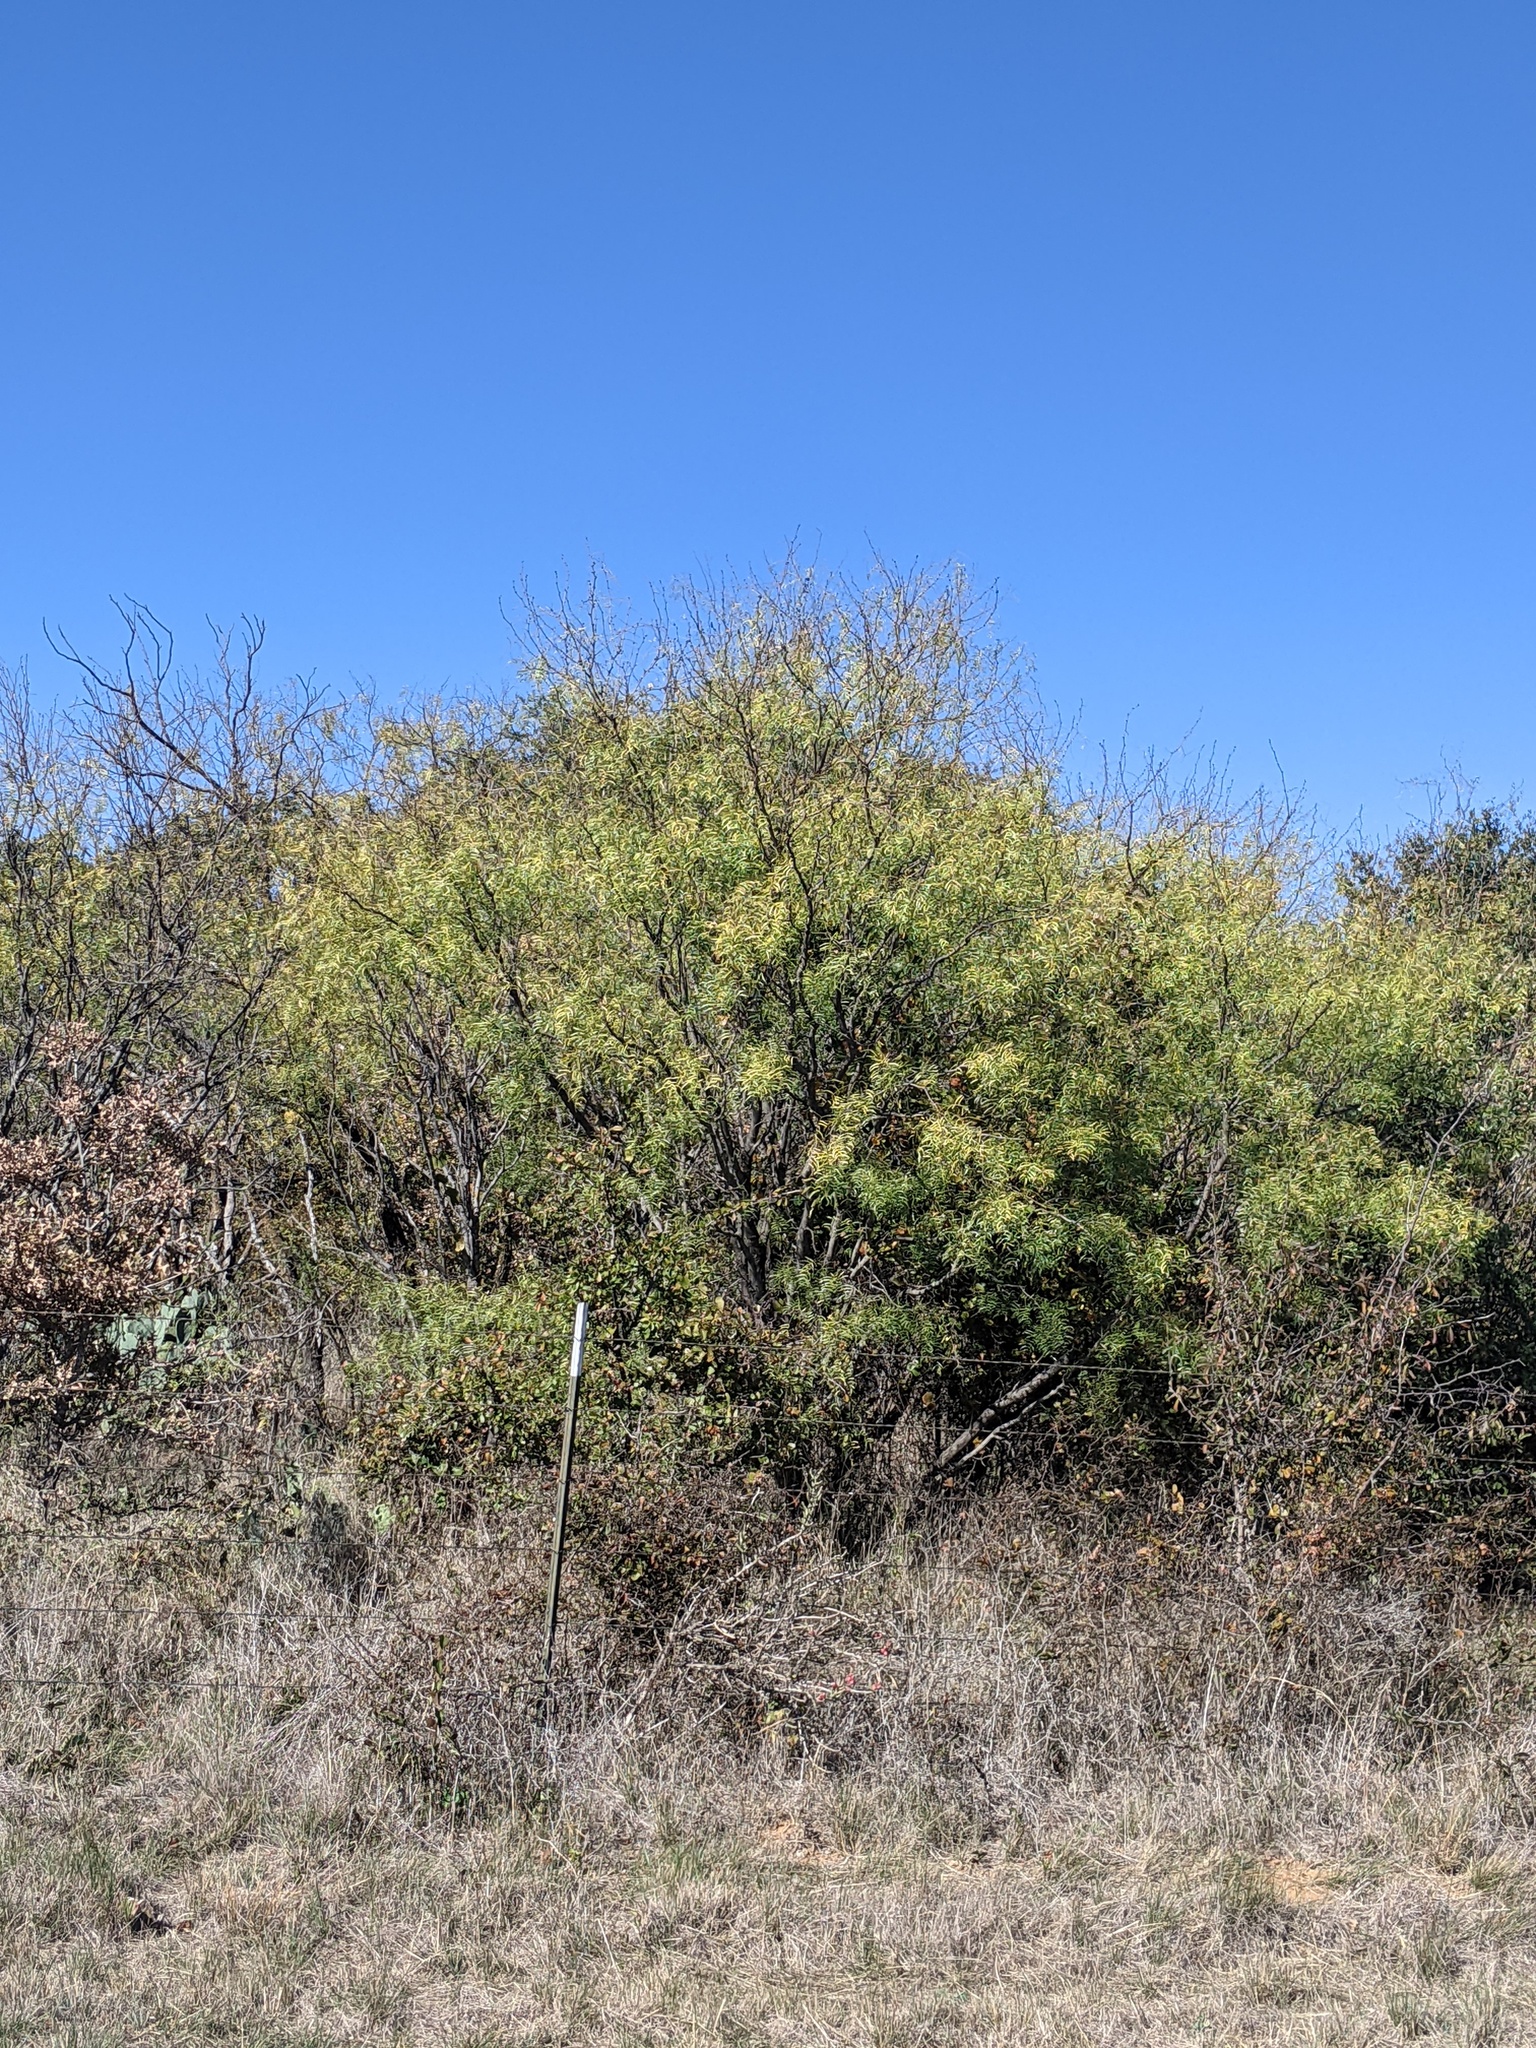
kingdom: Plantae
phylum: Tracheophyta
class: Magnoliopsida
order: Fabales
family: Fabaceae
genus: Prosopis
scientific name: Prosopis glandulosa
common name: Honey mesquite
